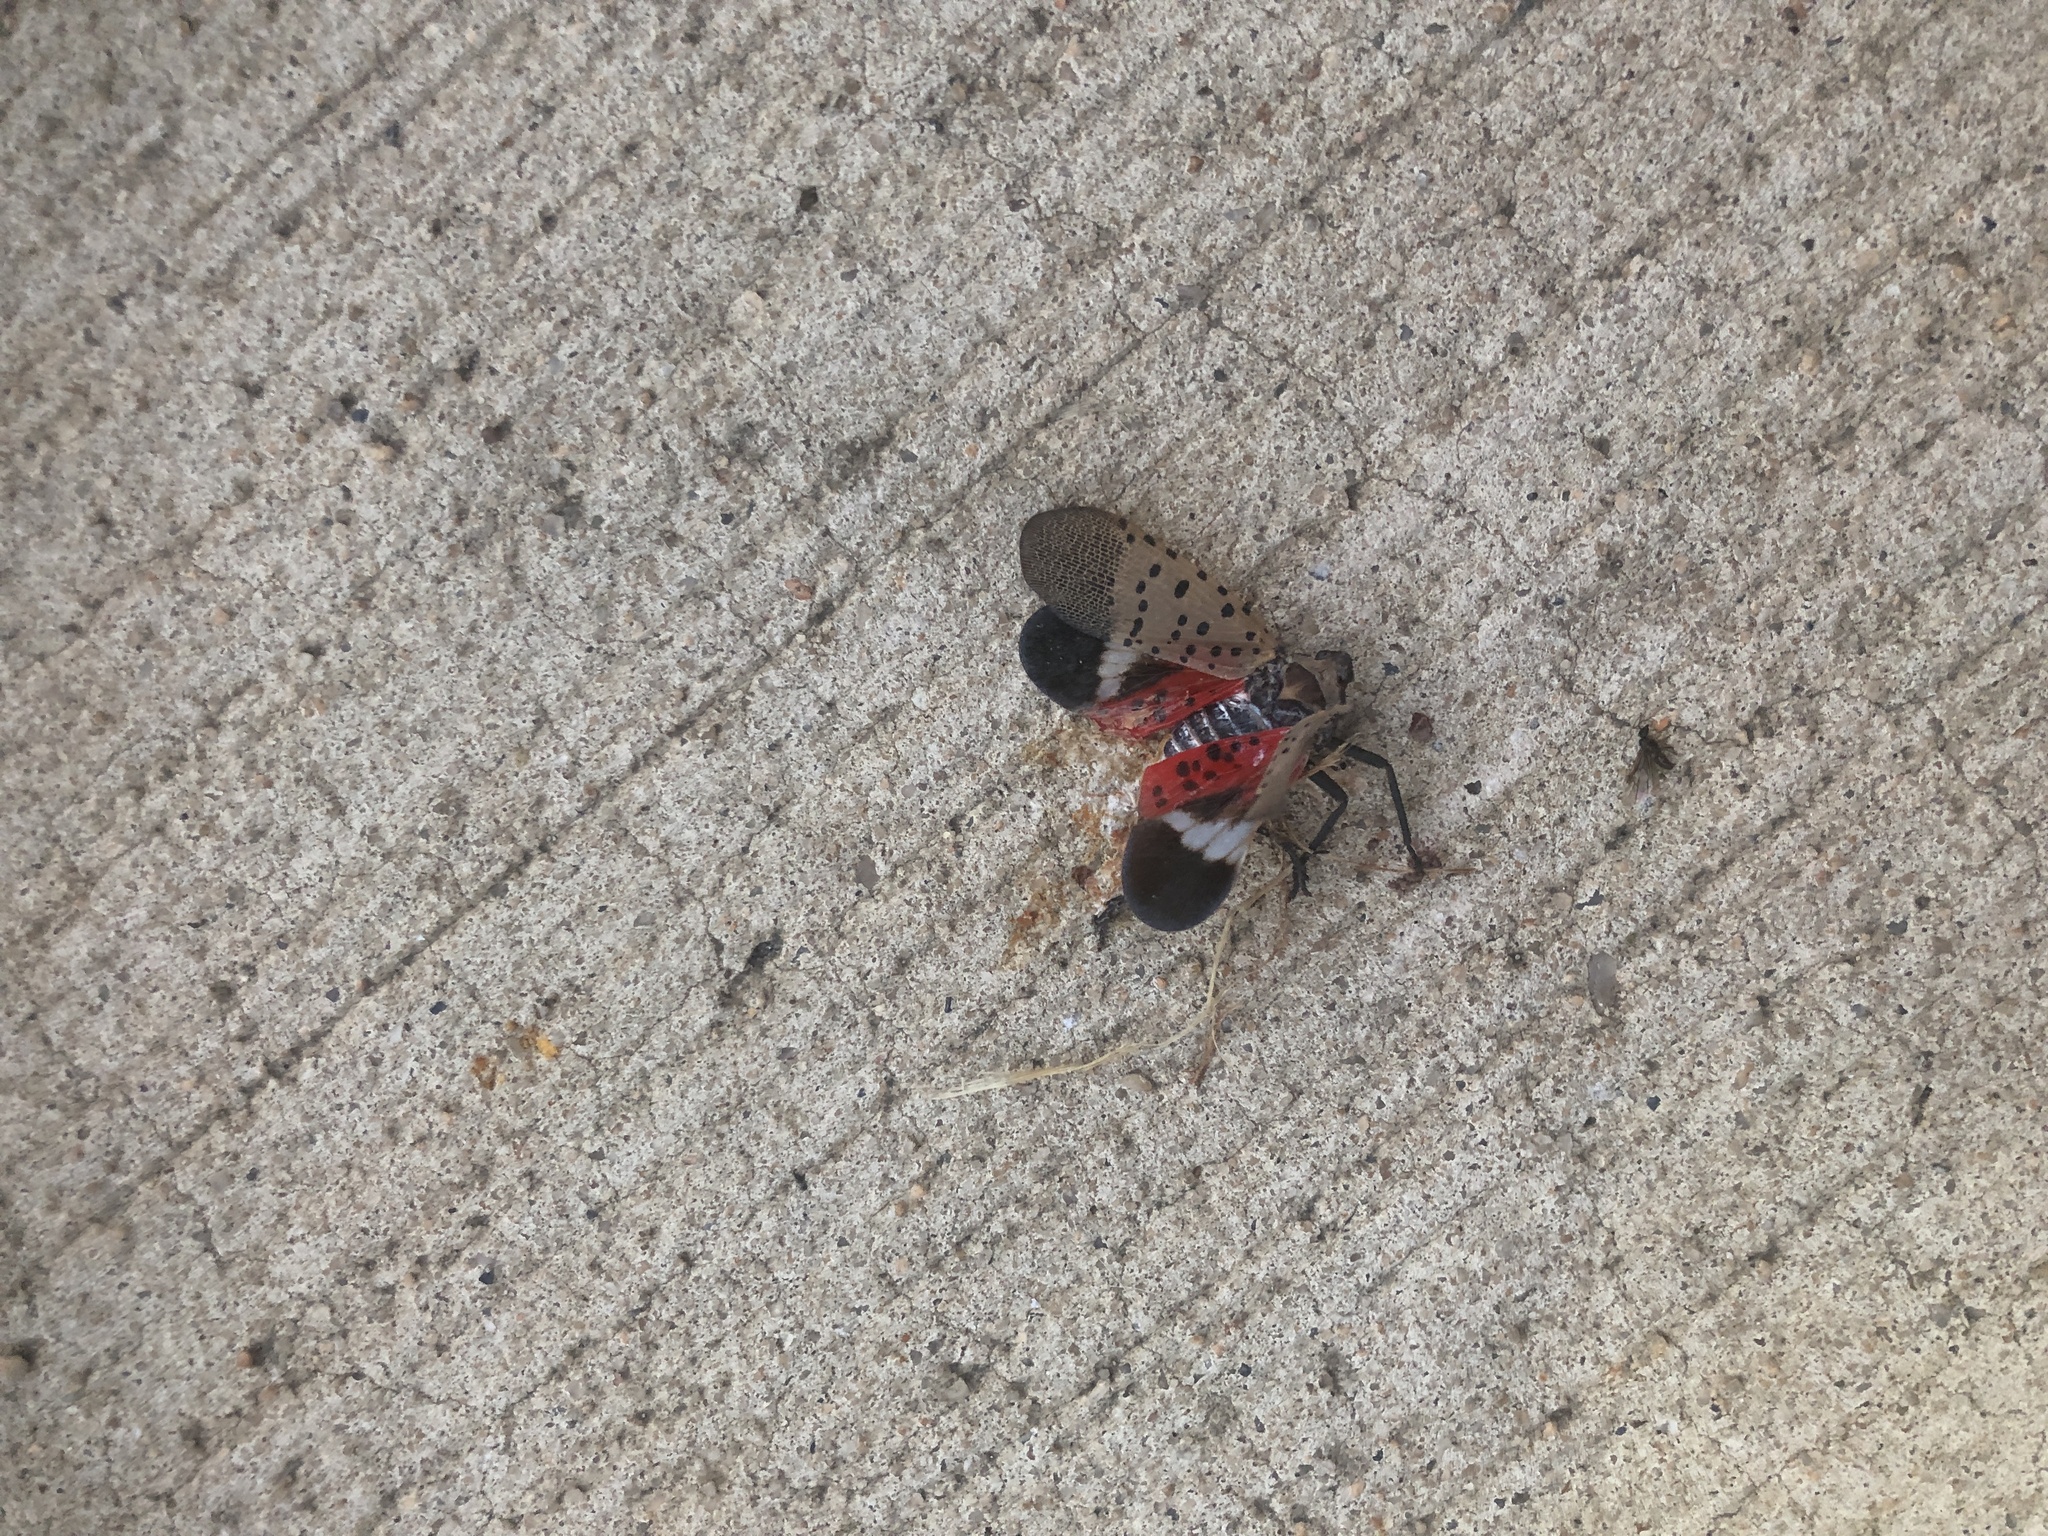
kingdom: Animalia
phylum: Arthropoda
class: Insecta
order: Hemiptera
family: Fulgoridae
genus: Lycorma
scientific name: Lycorma delicatula
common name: Spotted lanternfly
